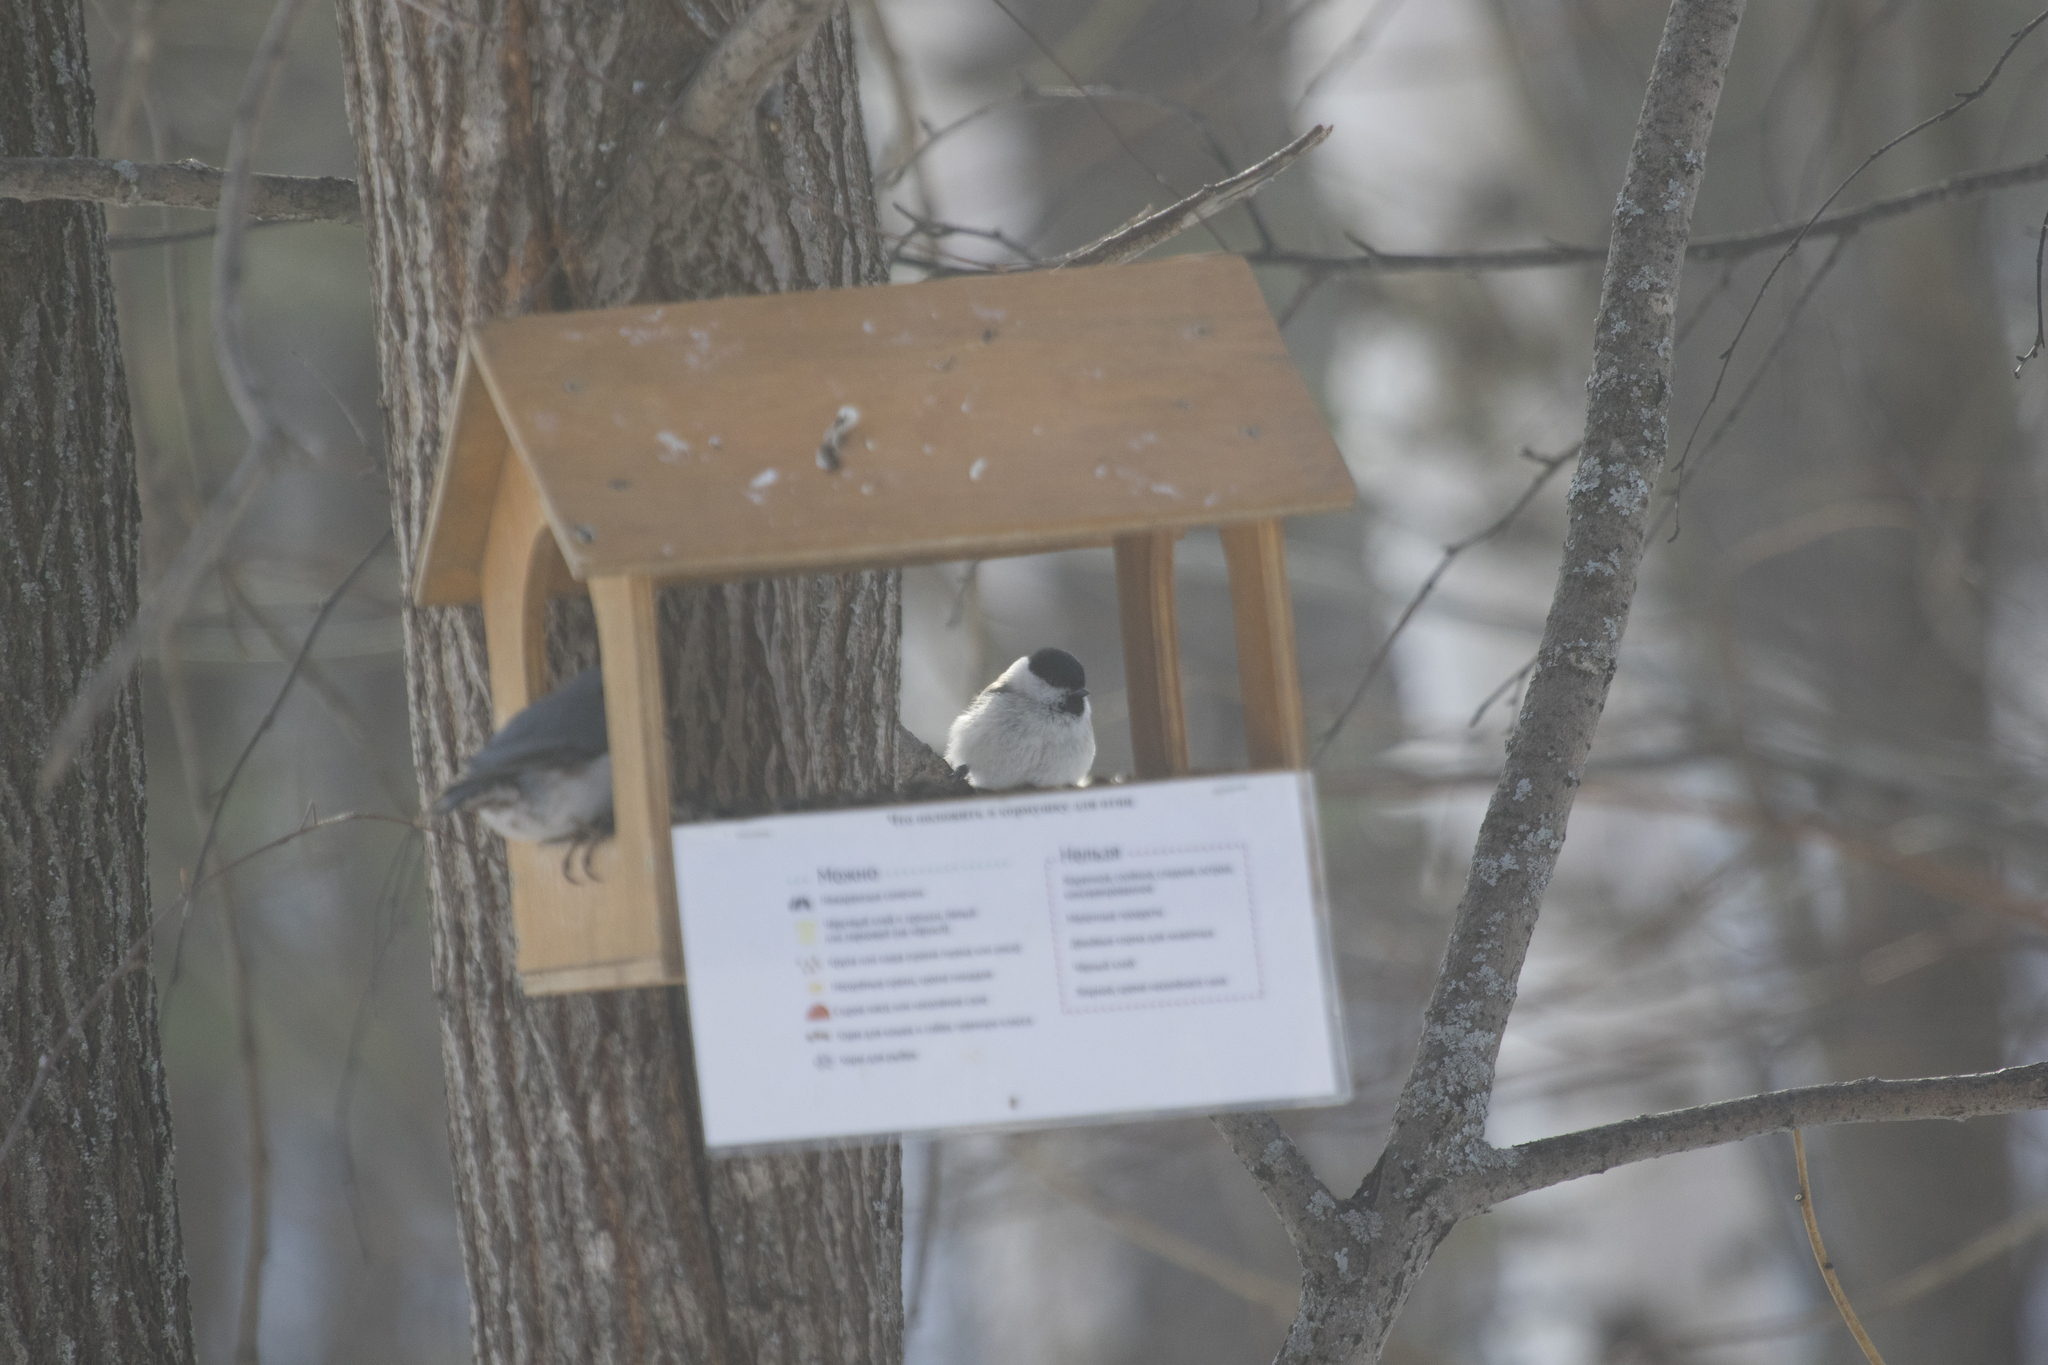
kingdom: Animalia
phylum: Chordata
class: Aves
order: Passeriformes
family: Paridae
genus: Poecile
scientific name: Poecile montanus
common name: Willow tit
